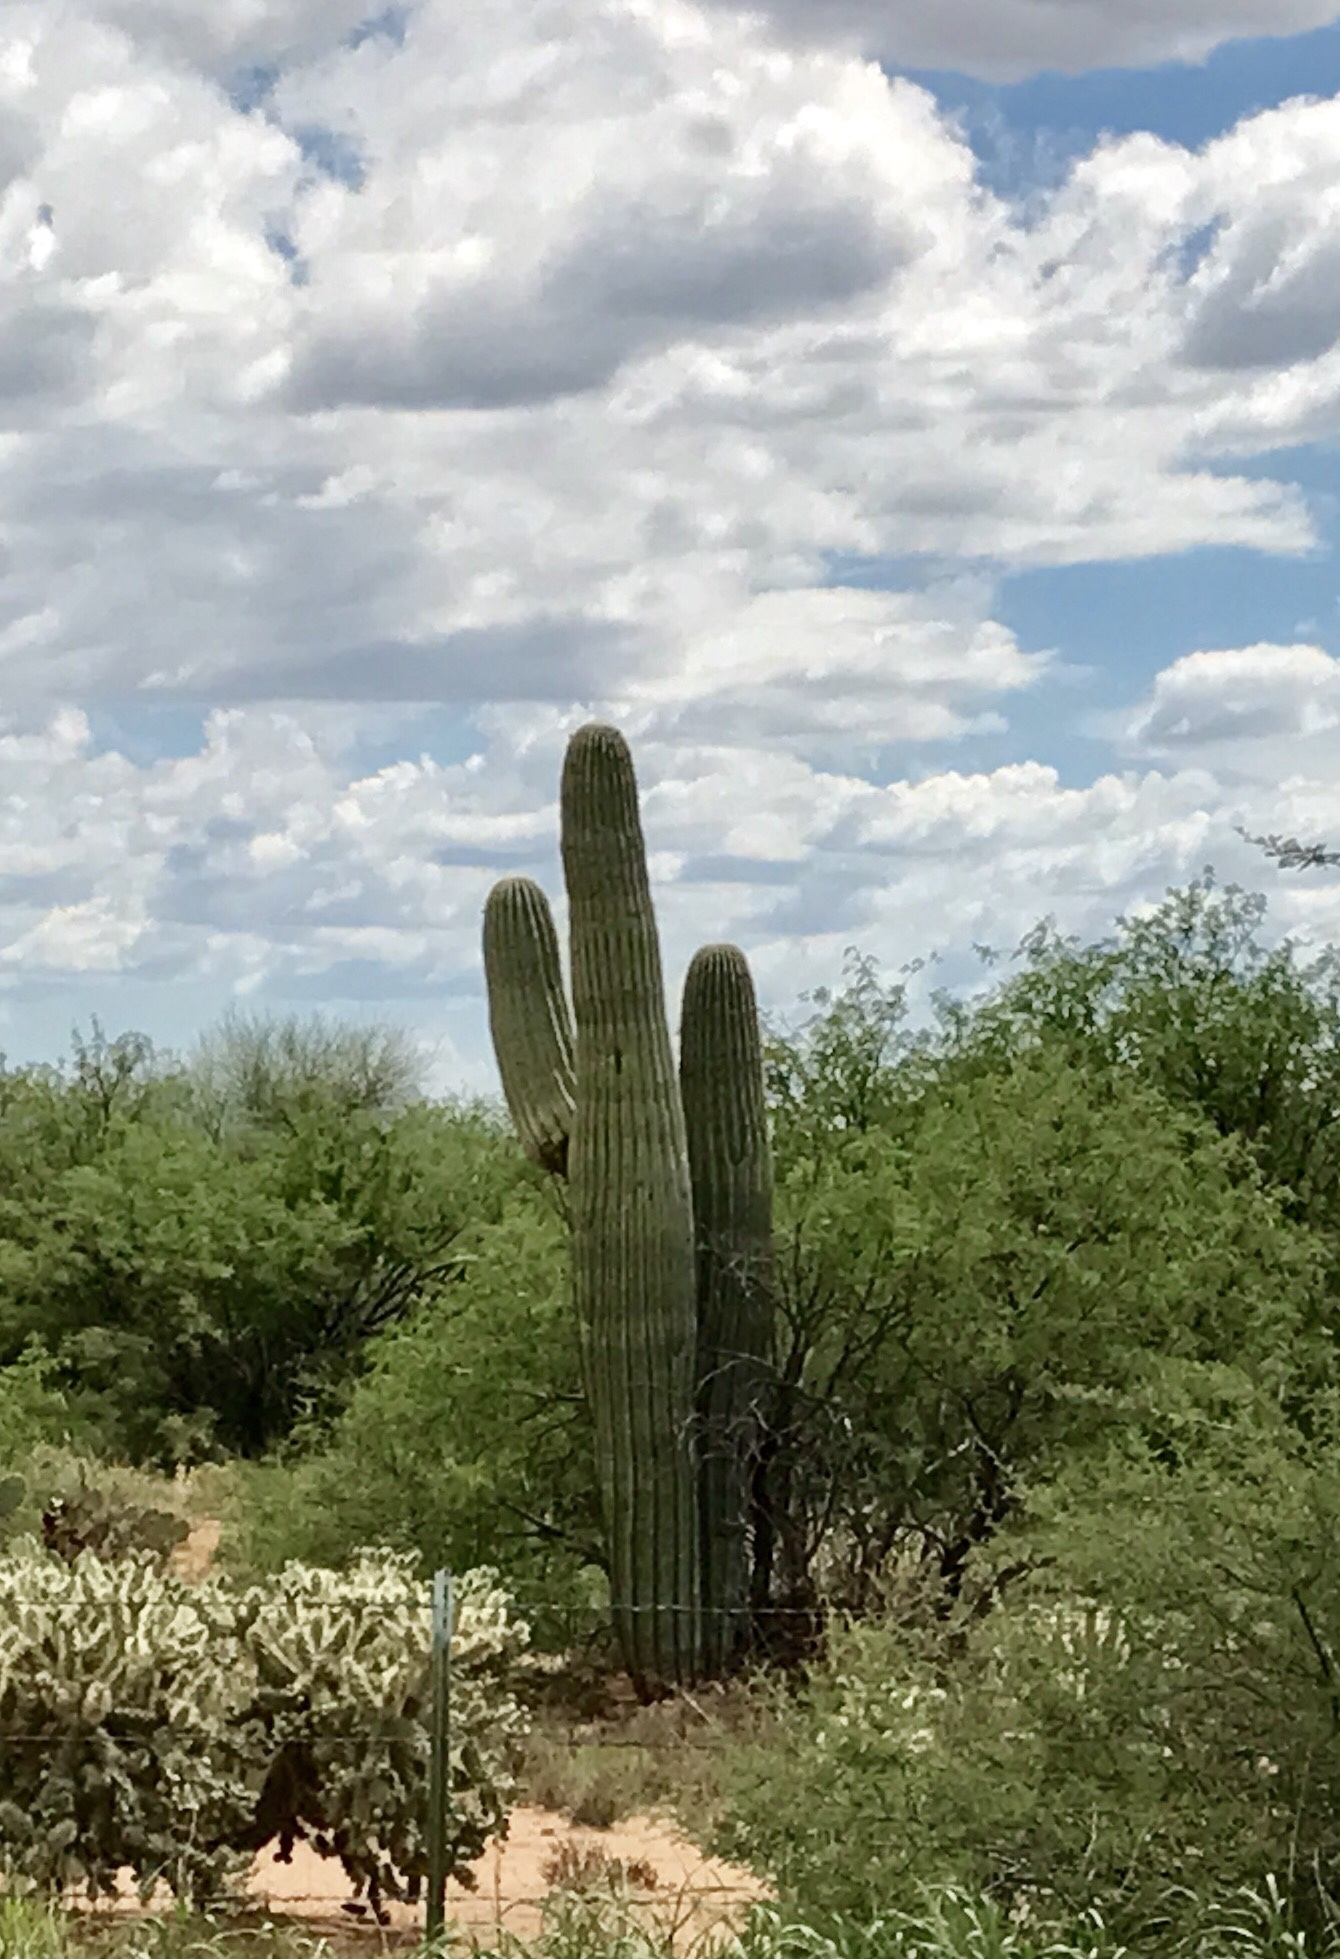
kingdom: Plantae
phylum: Tracheophyta
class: Magnoliopsida
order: Caryophyllales
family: Cactaceae
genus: Carnegiea
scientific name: Carnegiea gigantea
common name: Saguaro
